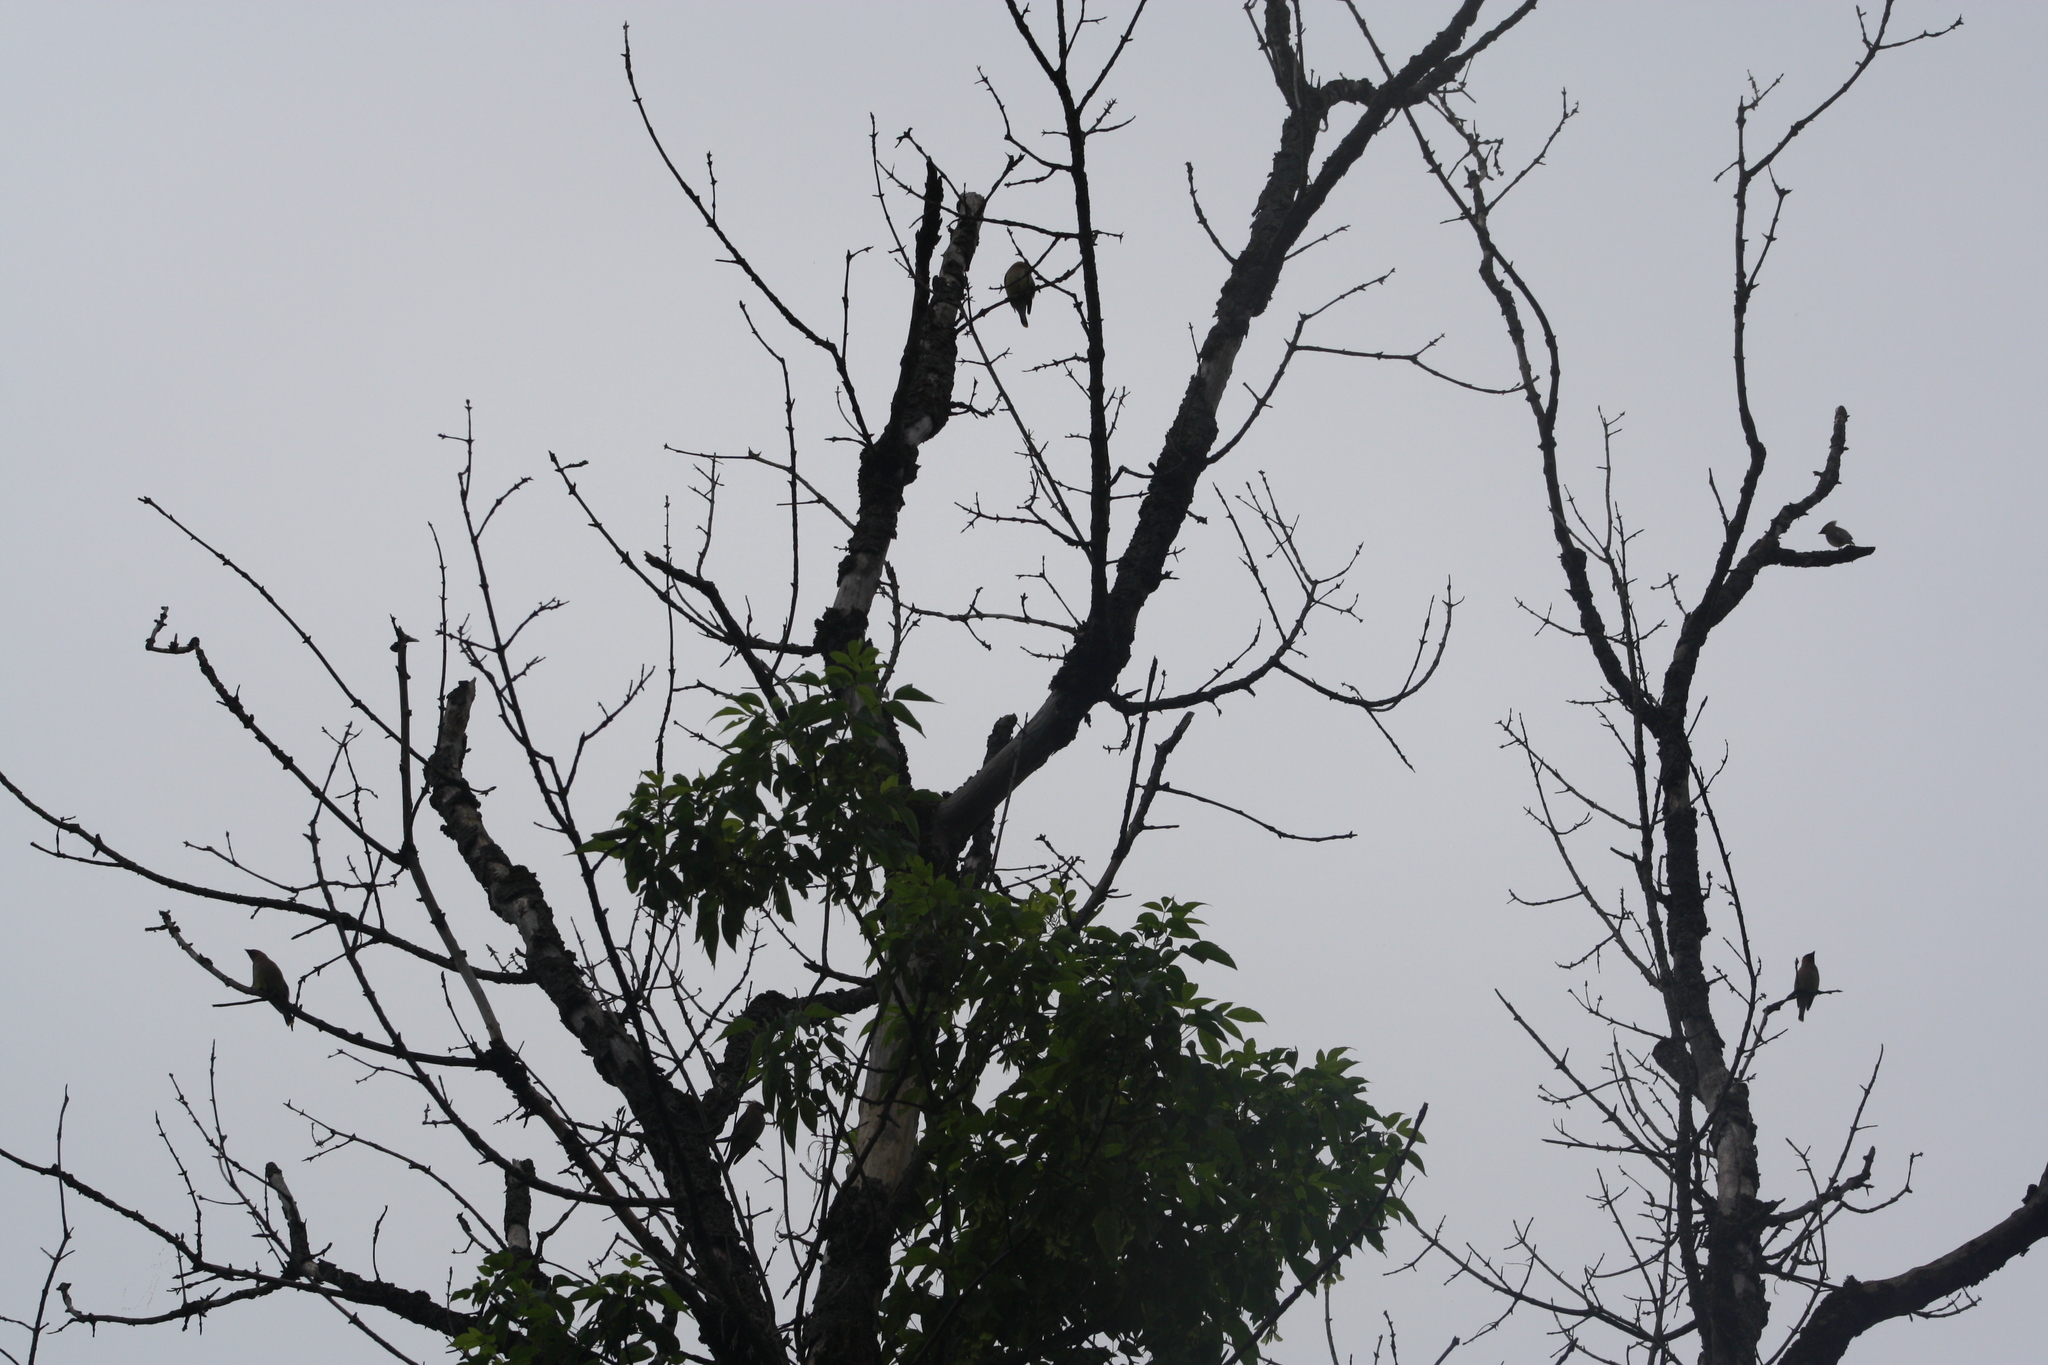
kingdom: Animalia
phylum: Chordata
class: Aves
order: Passeriformes
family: Bombycillidae
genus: Bombycilla
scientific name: Bombycilla cedrorum
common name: Cedar waxwing
